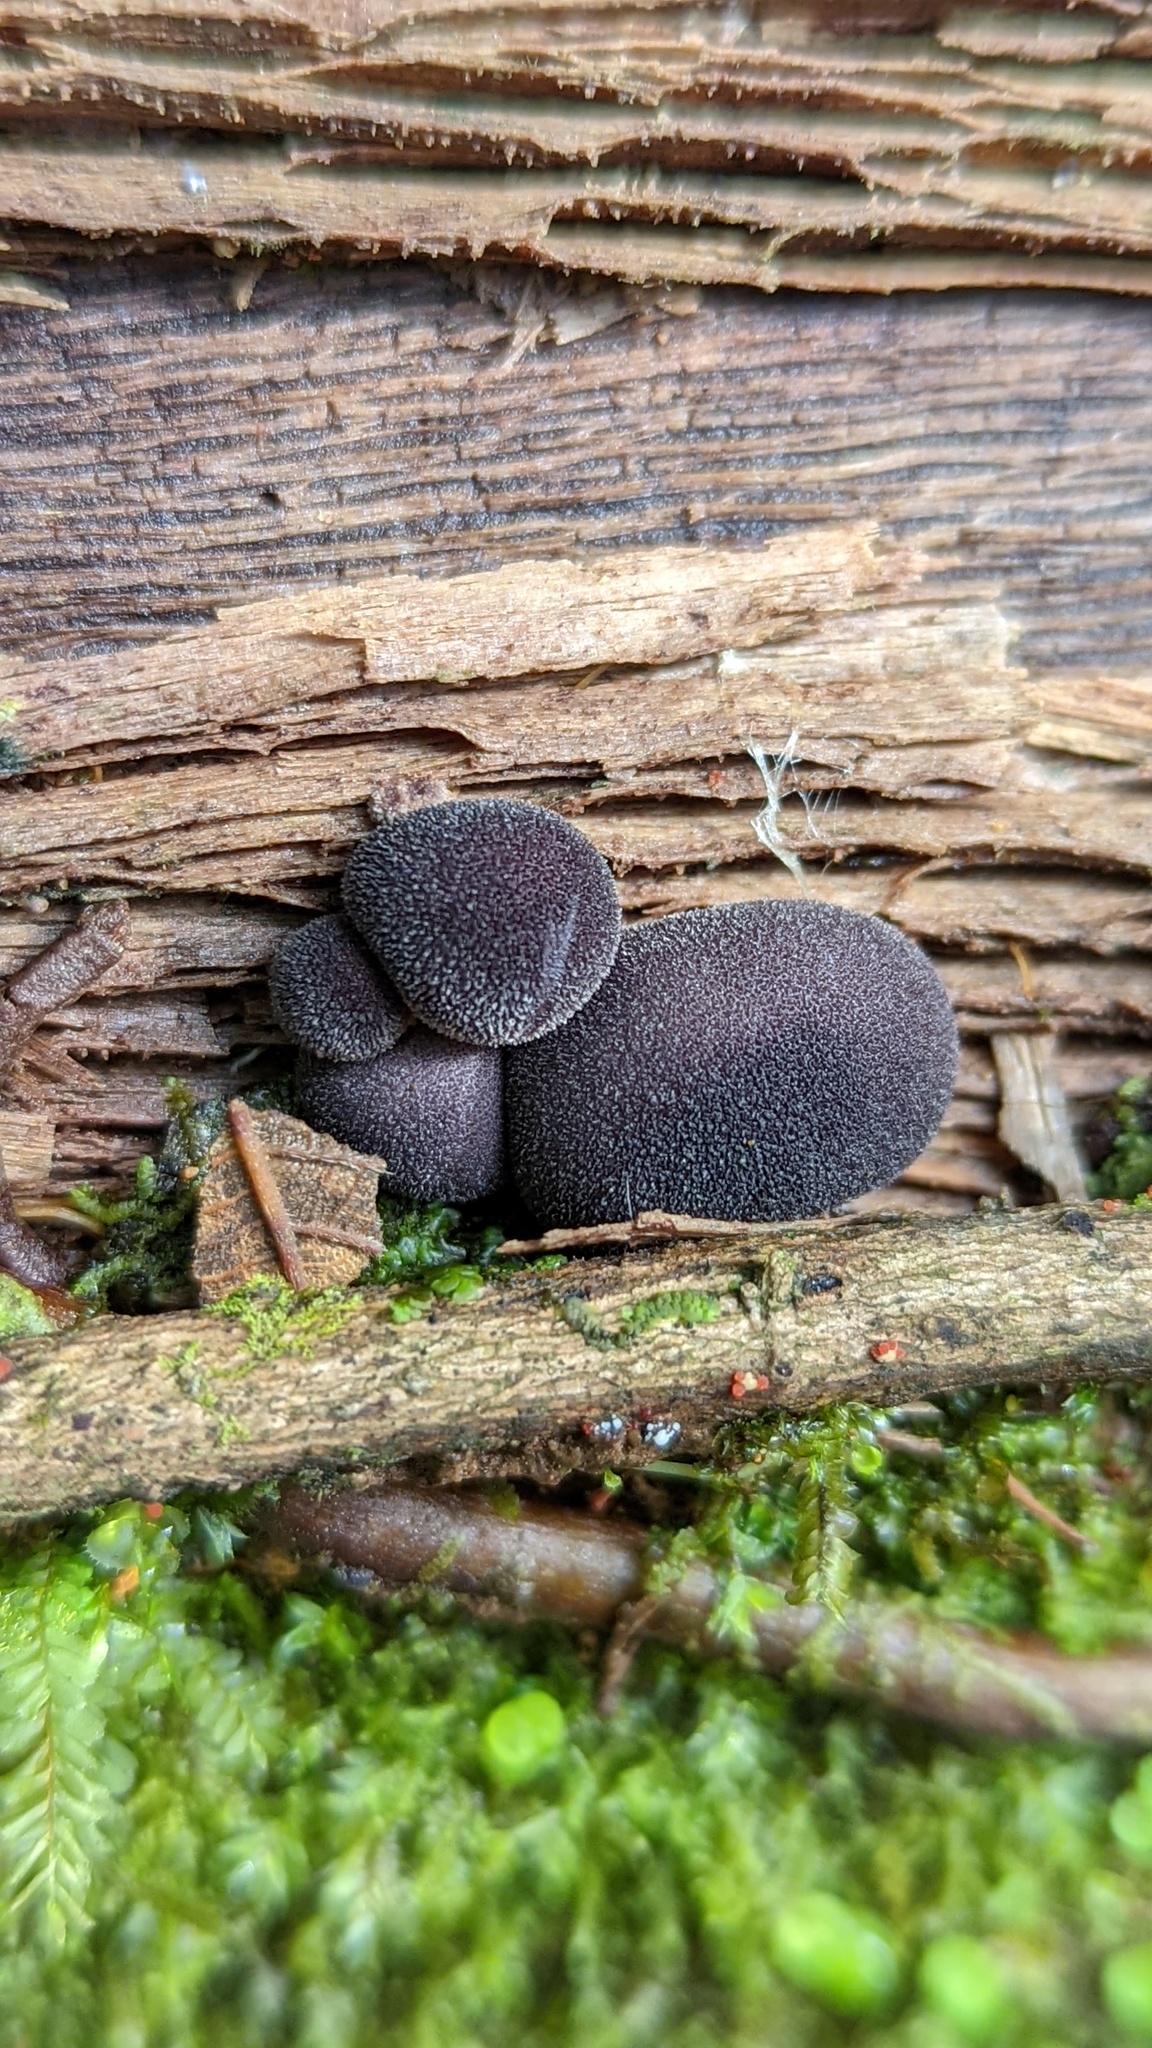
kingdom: Fungi
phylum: Basidiomycota
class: Agaricomycetes
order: Agaricales
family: Lycoperdaceae
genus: Lycoperdon
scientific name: Lycoperdon fuligineum
